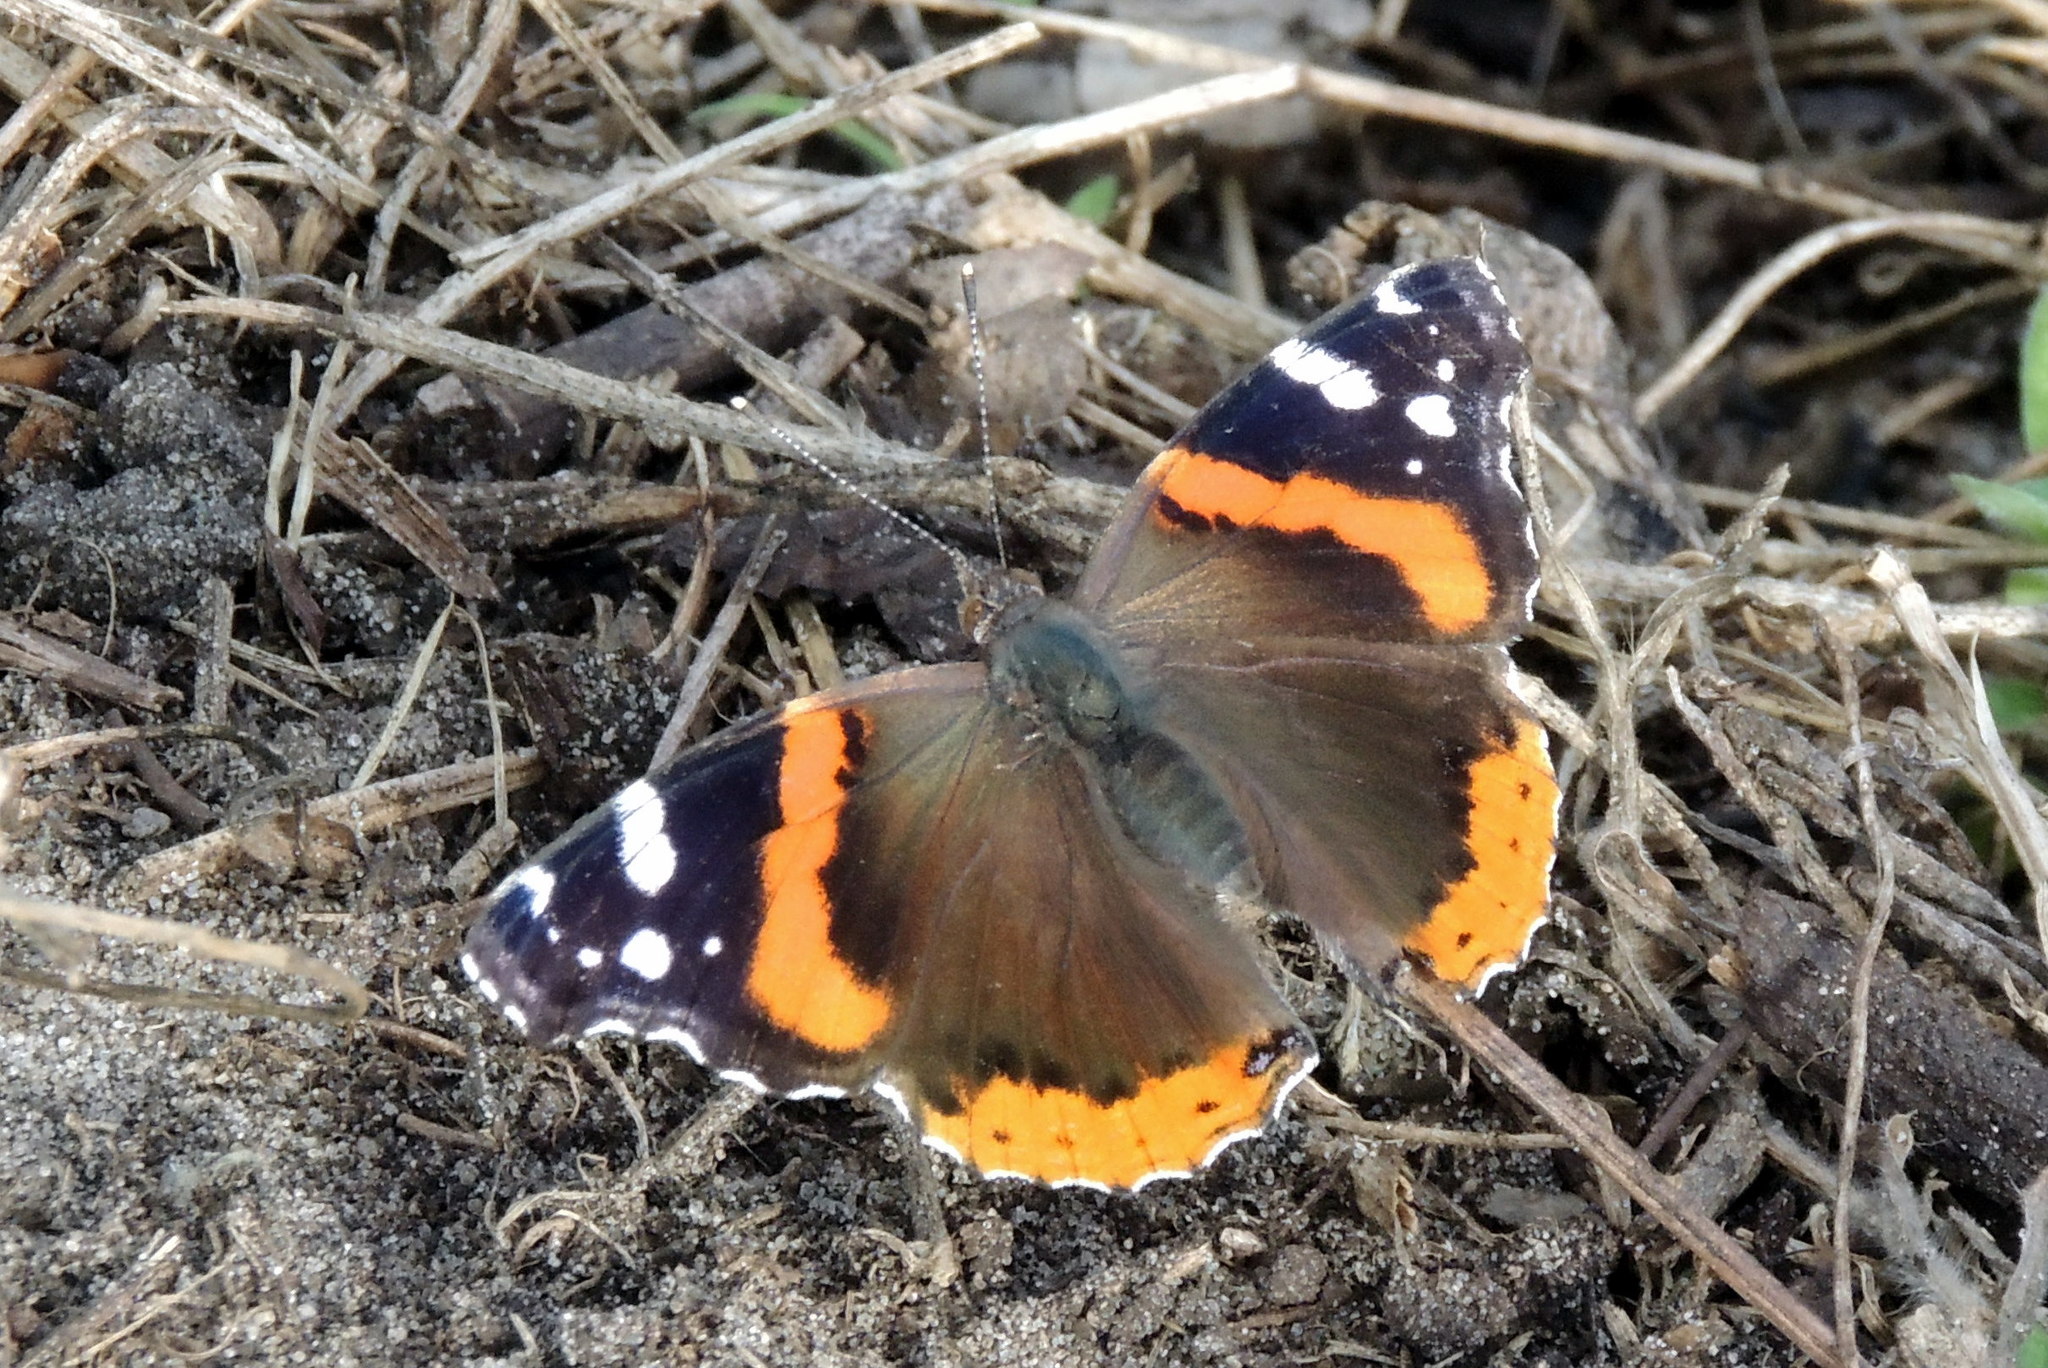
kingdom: Animalia
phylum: Arthropoda
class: Insecta
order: Lepidoptera
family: Nymphalidae
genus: Vanessa
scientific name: Vanessa atalanta
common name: Red admiral
